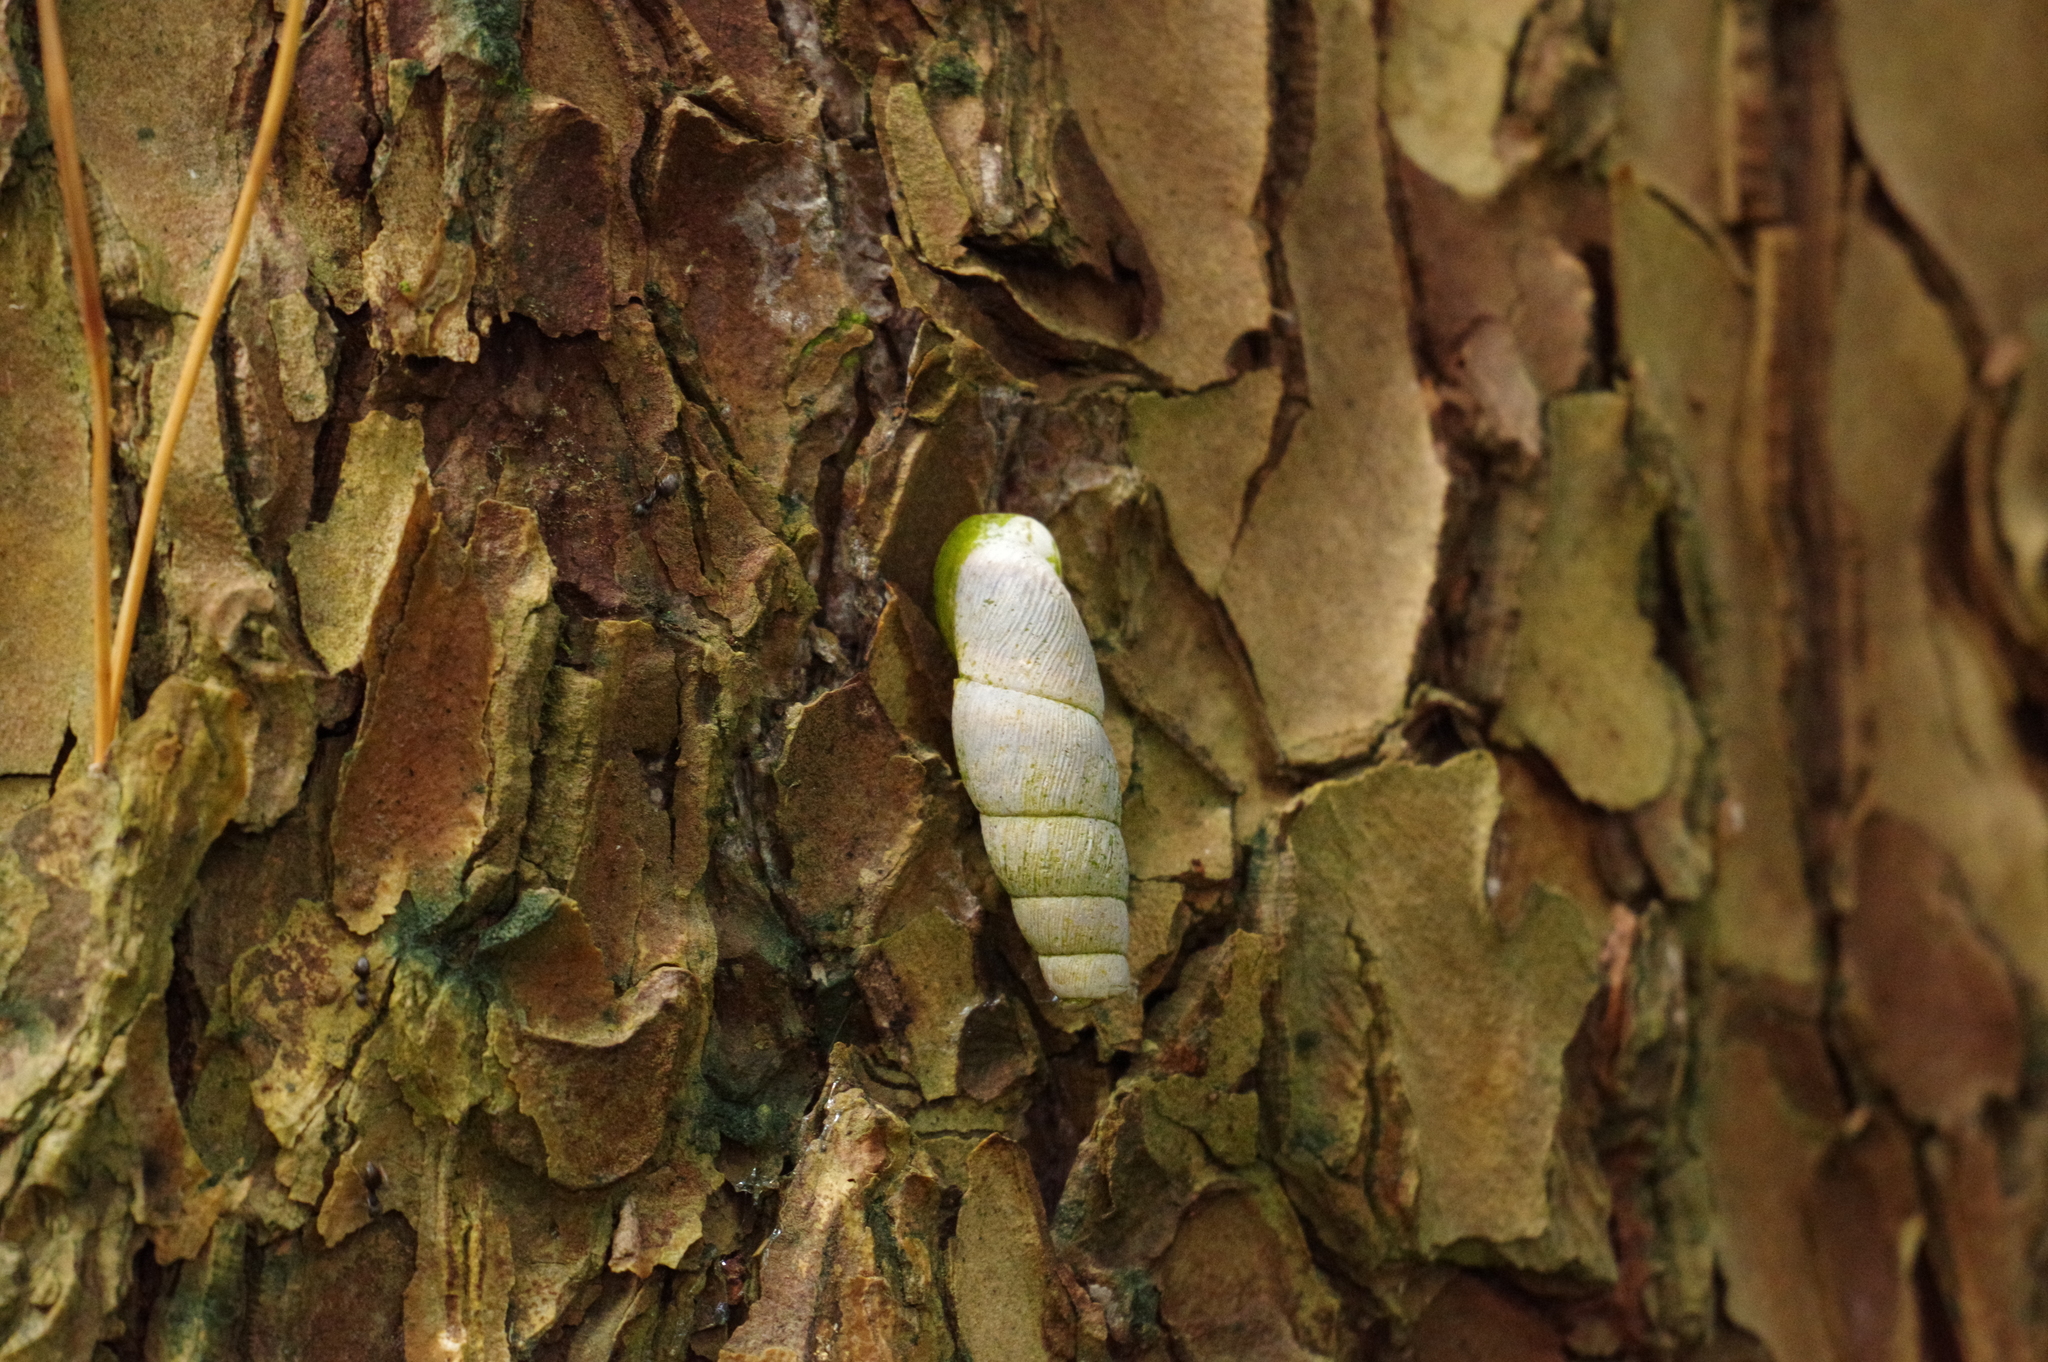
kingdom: Animalia
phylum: Mollusca
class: Gastropoda
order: Stylommatophora
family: Clausiliidae
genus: Stereophaedusa
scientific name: Stereophaedusa valida
